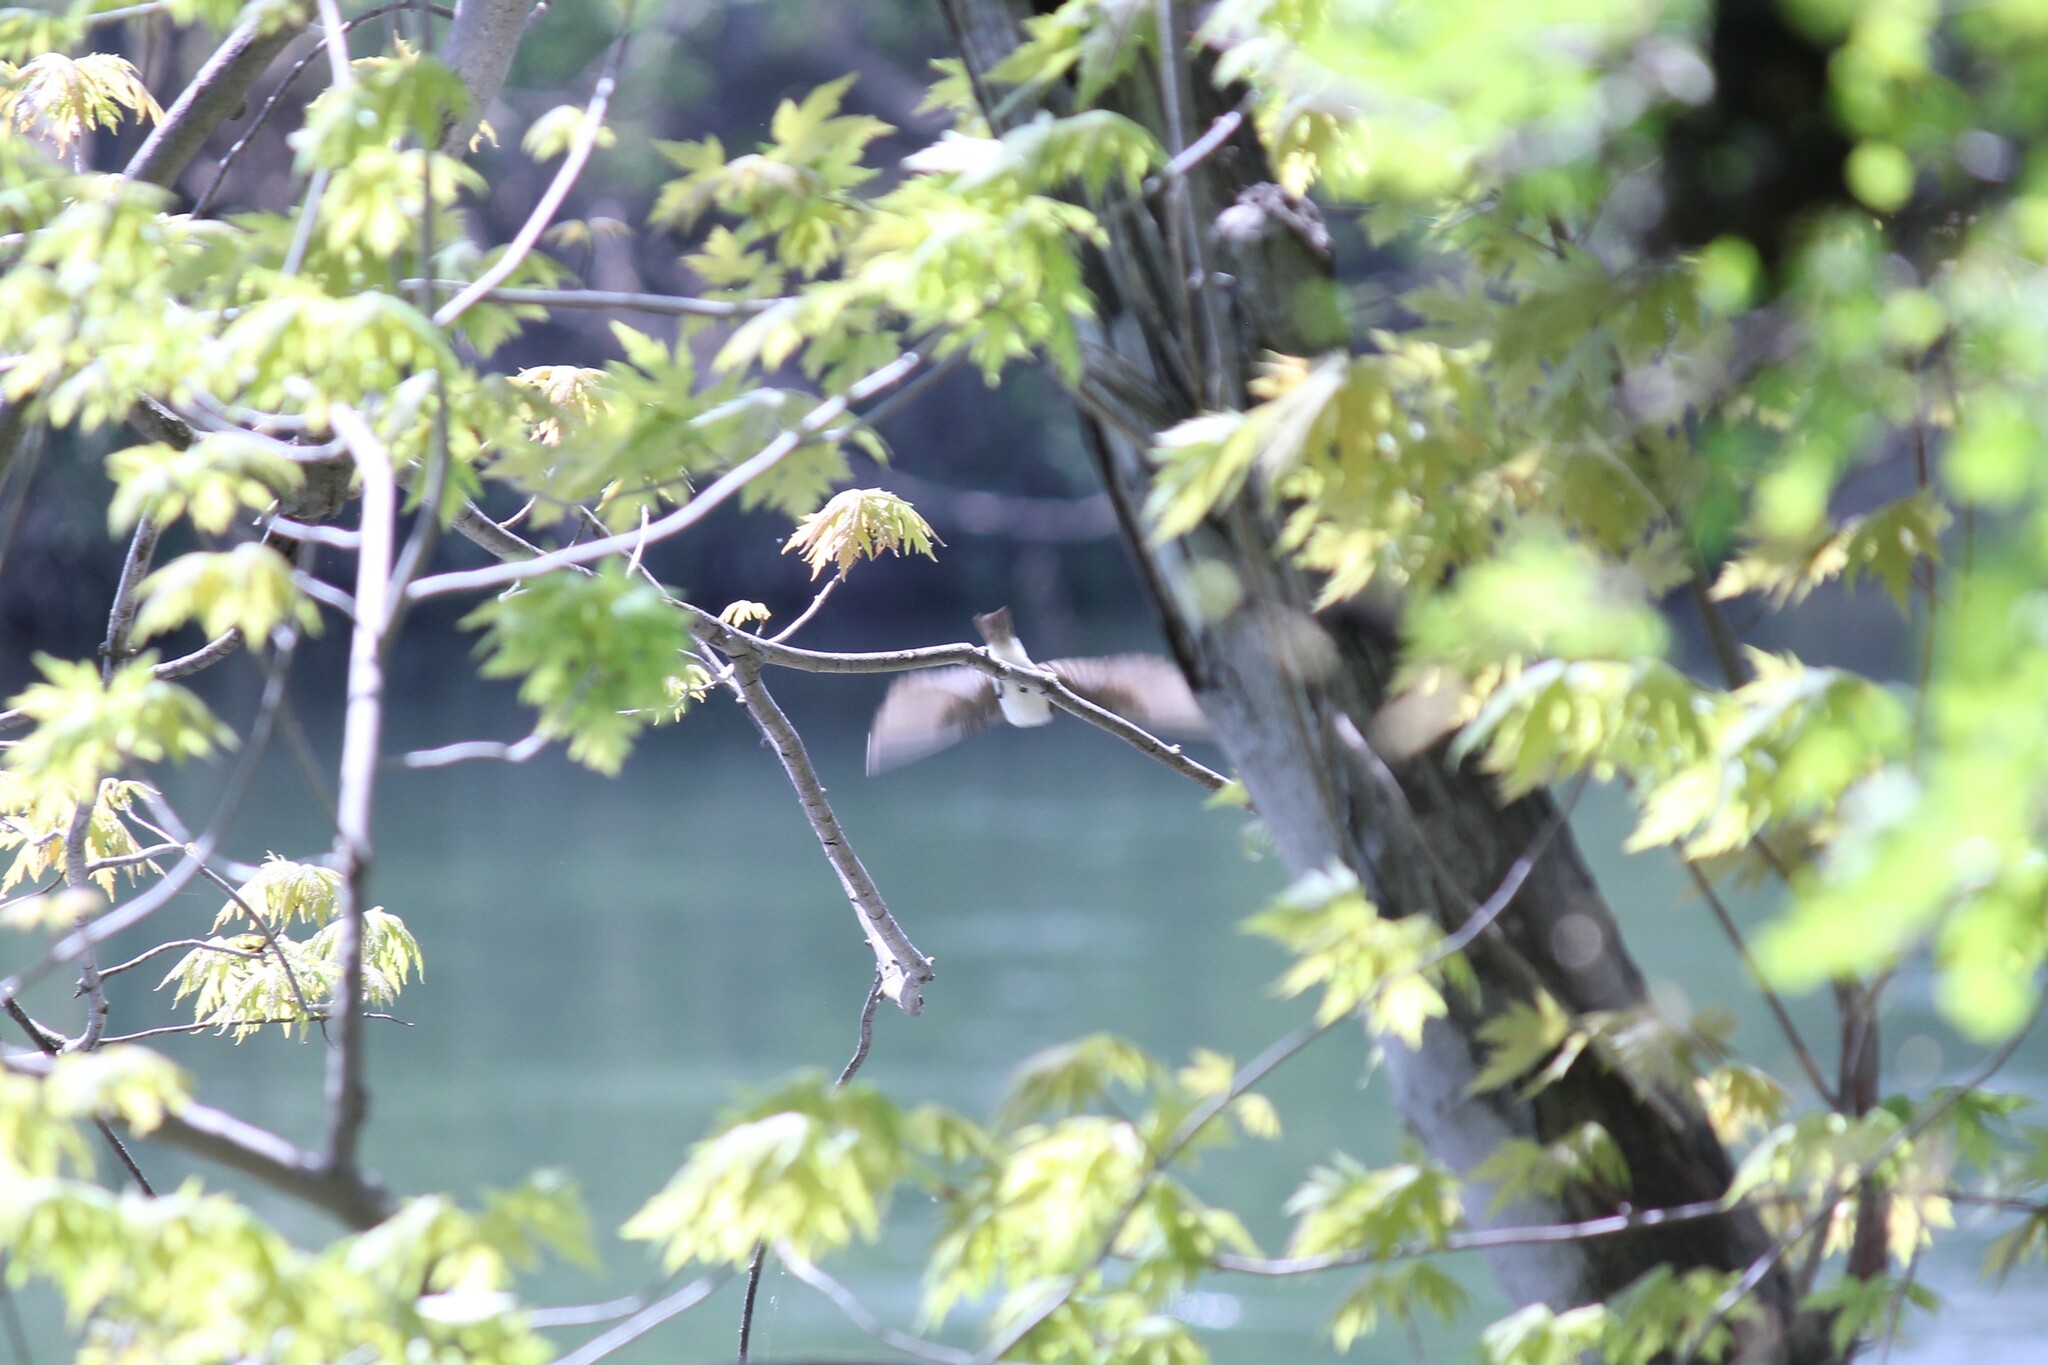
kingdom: Animalia
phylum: Chordata
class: Aves
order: Passeriformes
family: Hirundinidae
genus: Tachycineta
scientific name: Tachycineta bicolor
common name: Tree swallow
